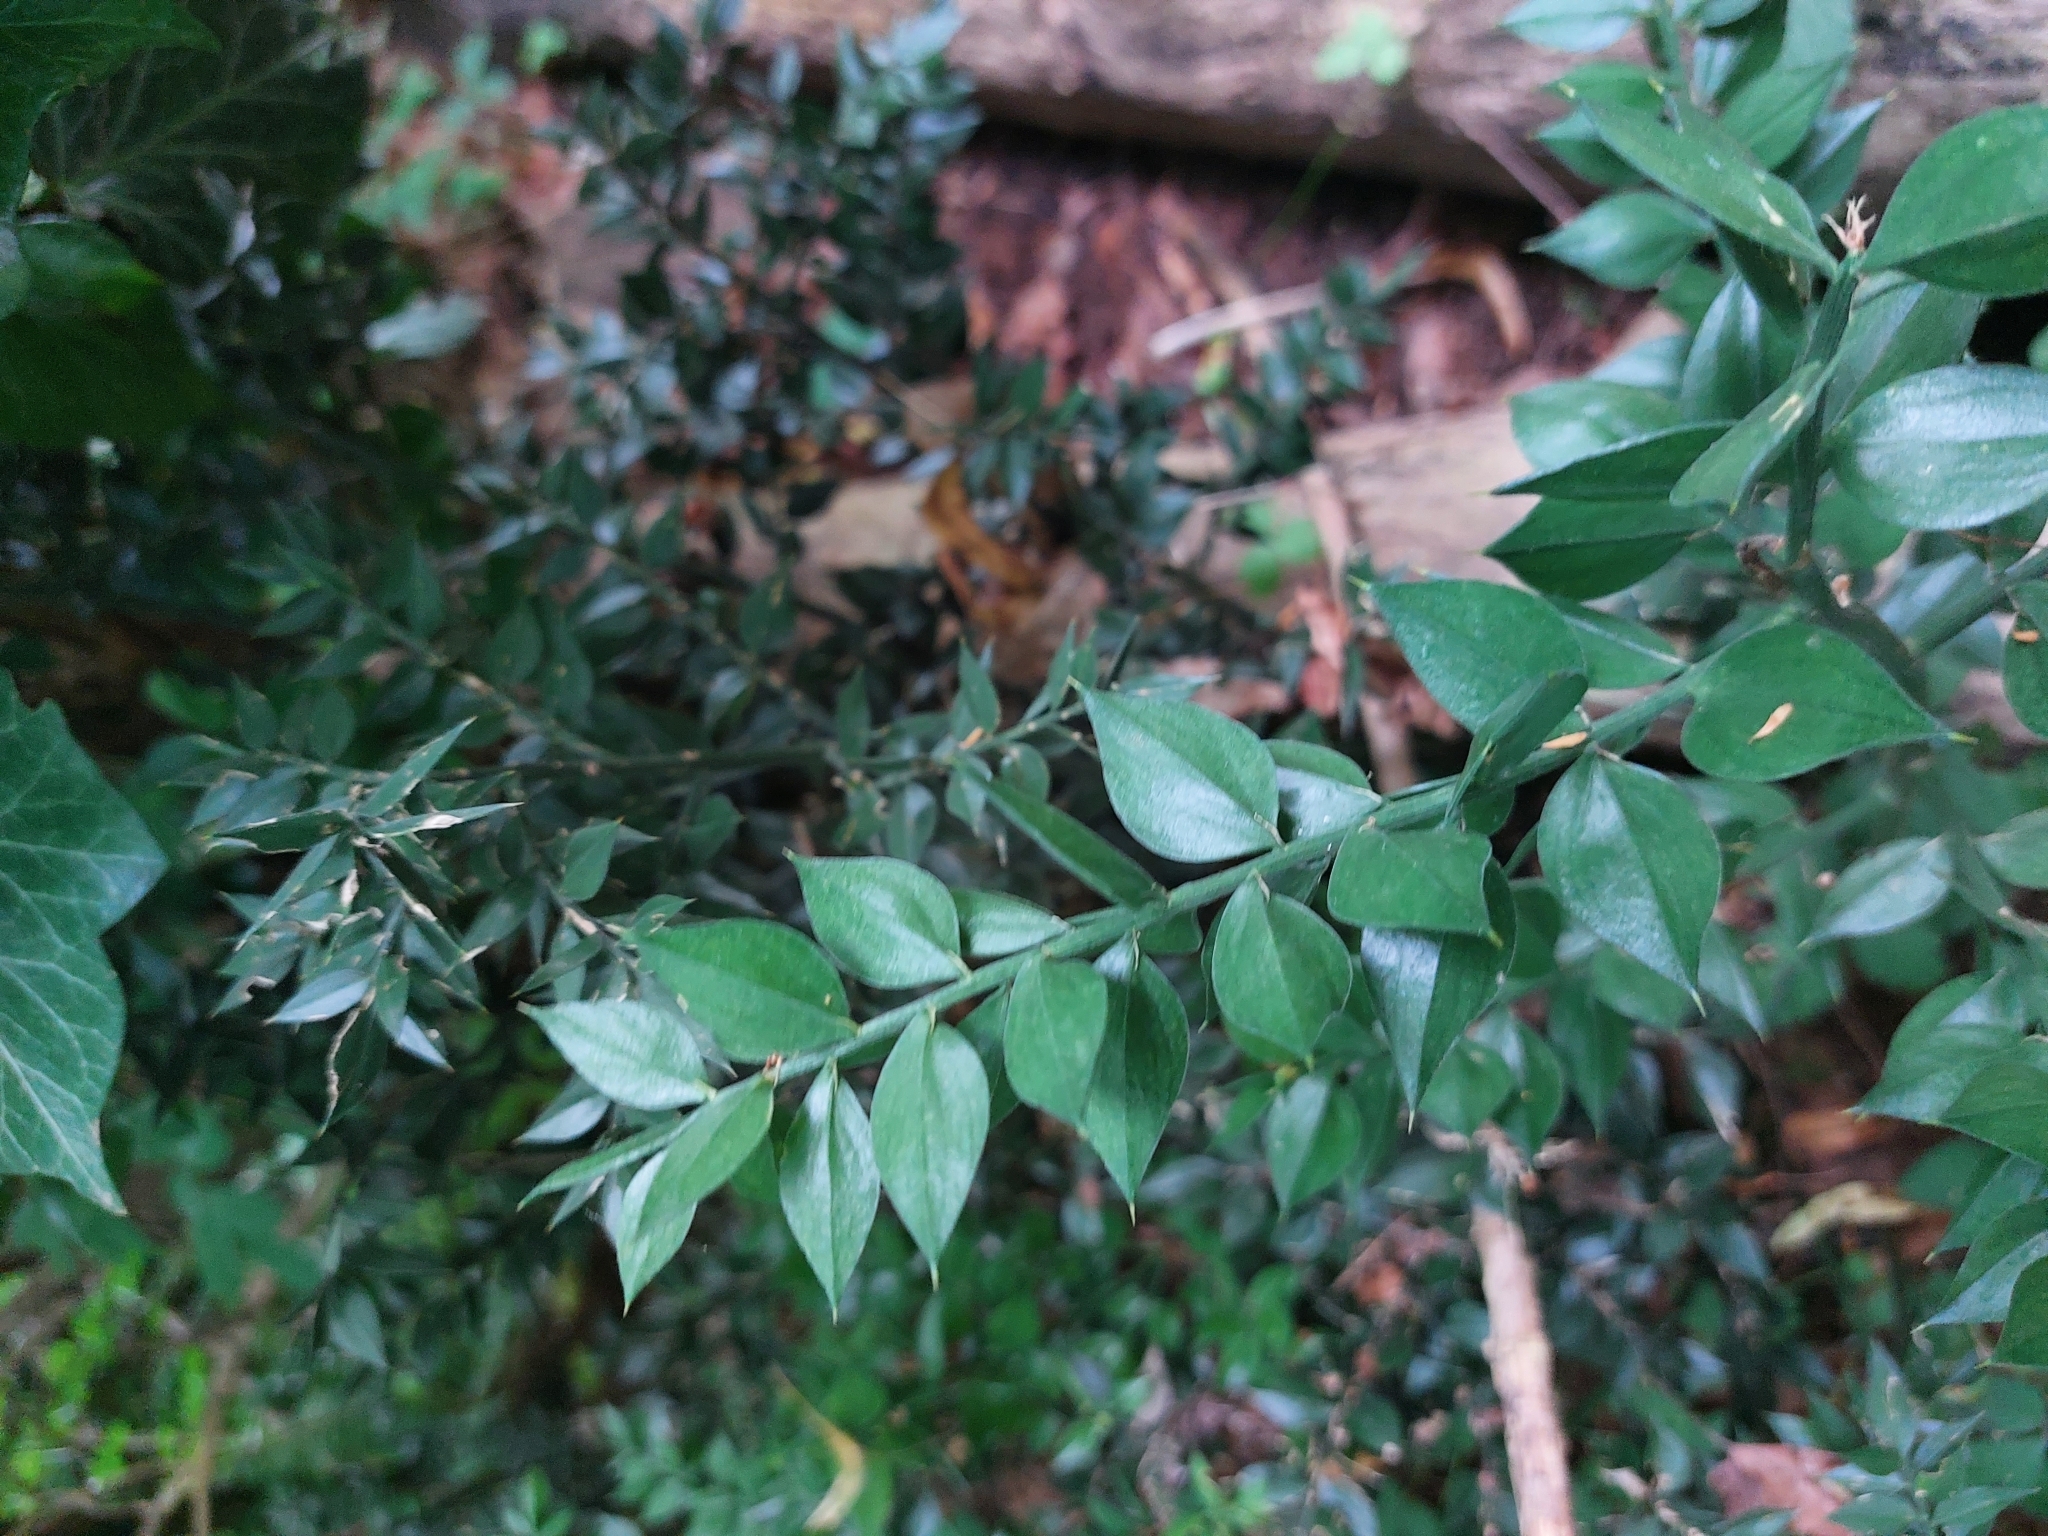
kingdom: Plantae
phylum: Tracheophyta
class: Liliopsida
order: Asparagales
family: Asparagaceae
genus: Ruscus
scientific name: Ruscus aculeatus
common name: Butcher's-broom
